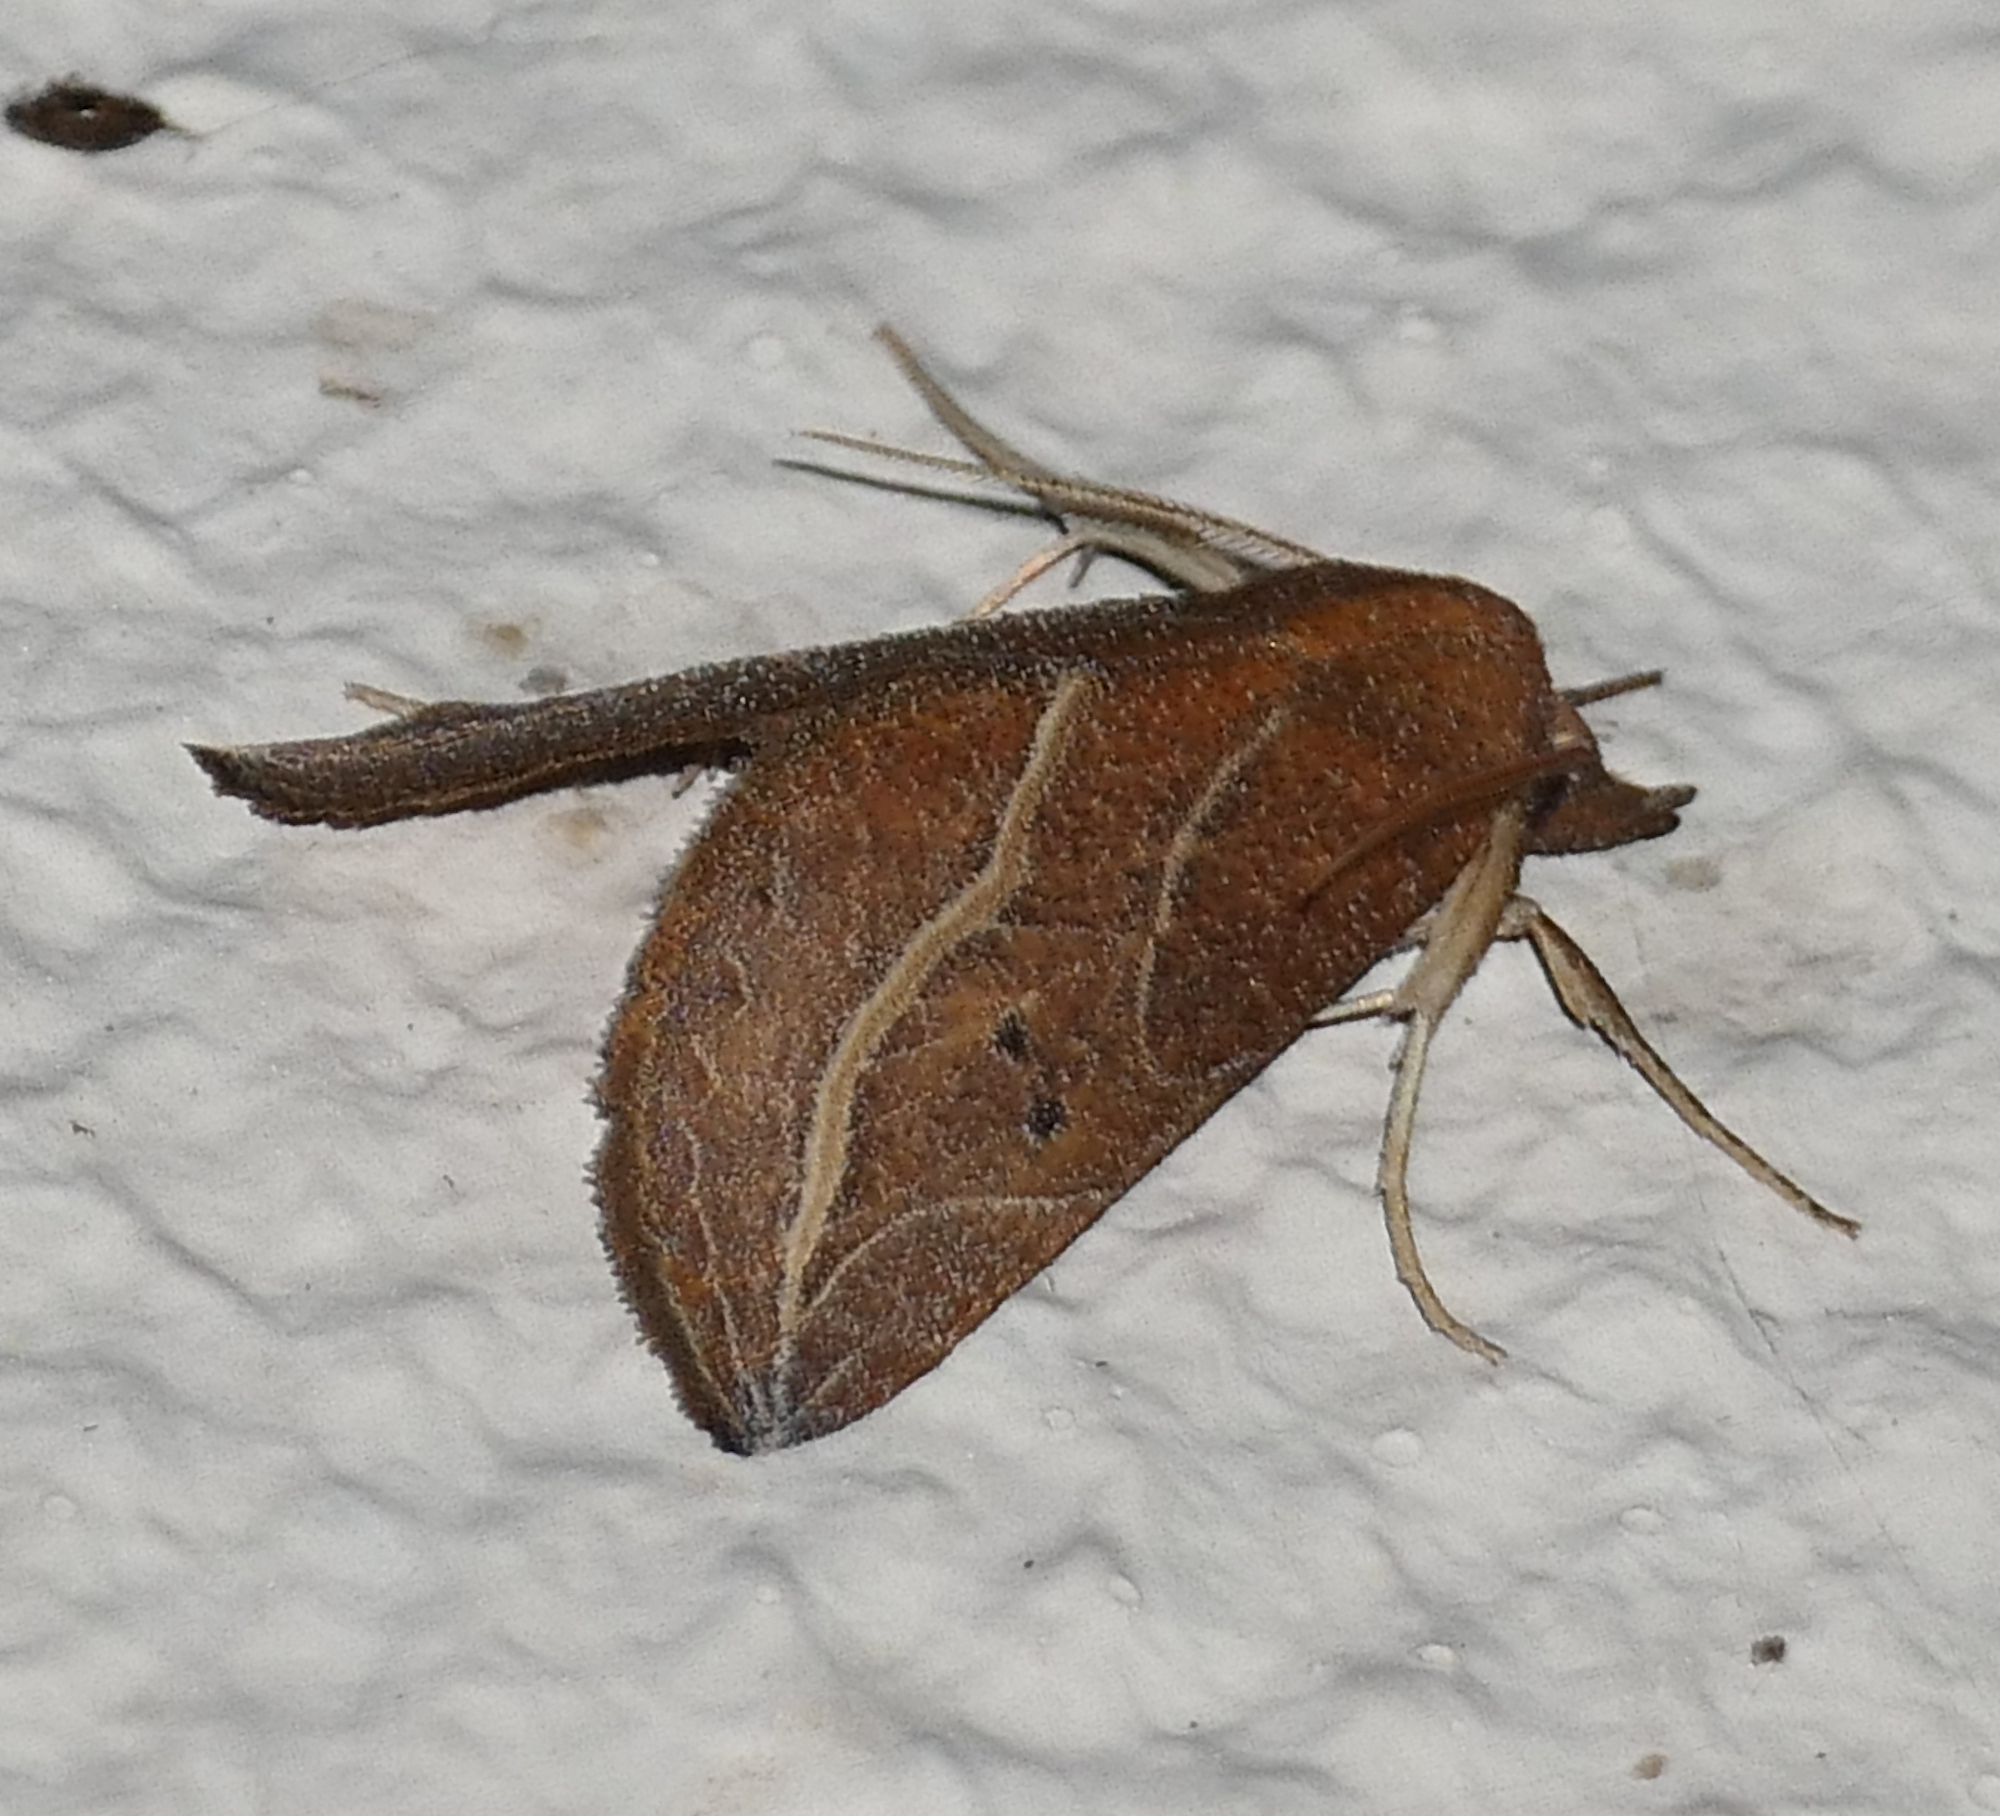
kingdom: Animalia
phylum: Arthropoda
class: Insecta
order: Lepidoptera
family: Erebidae
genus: Phyprosopus
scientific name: Phyprosopus callitrichoides
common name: Curved-lined owlet
